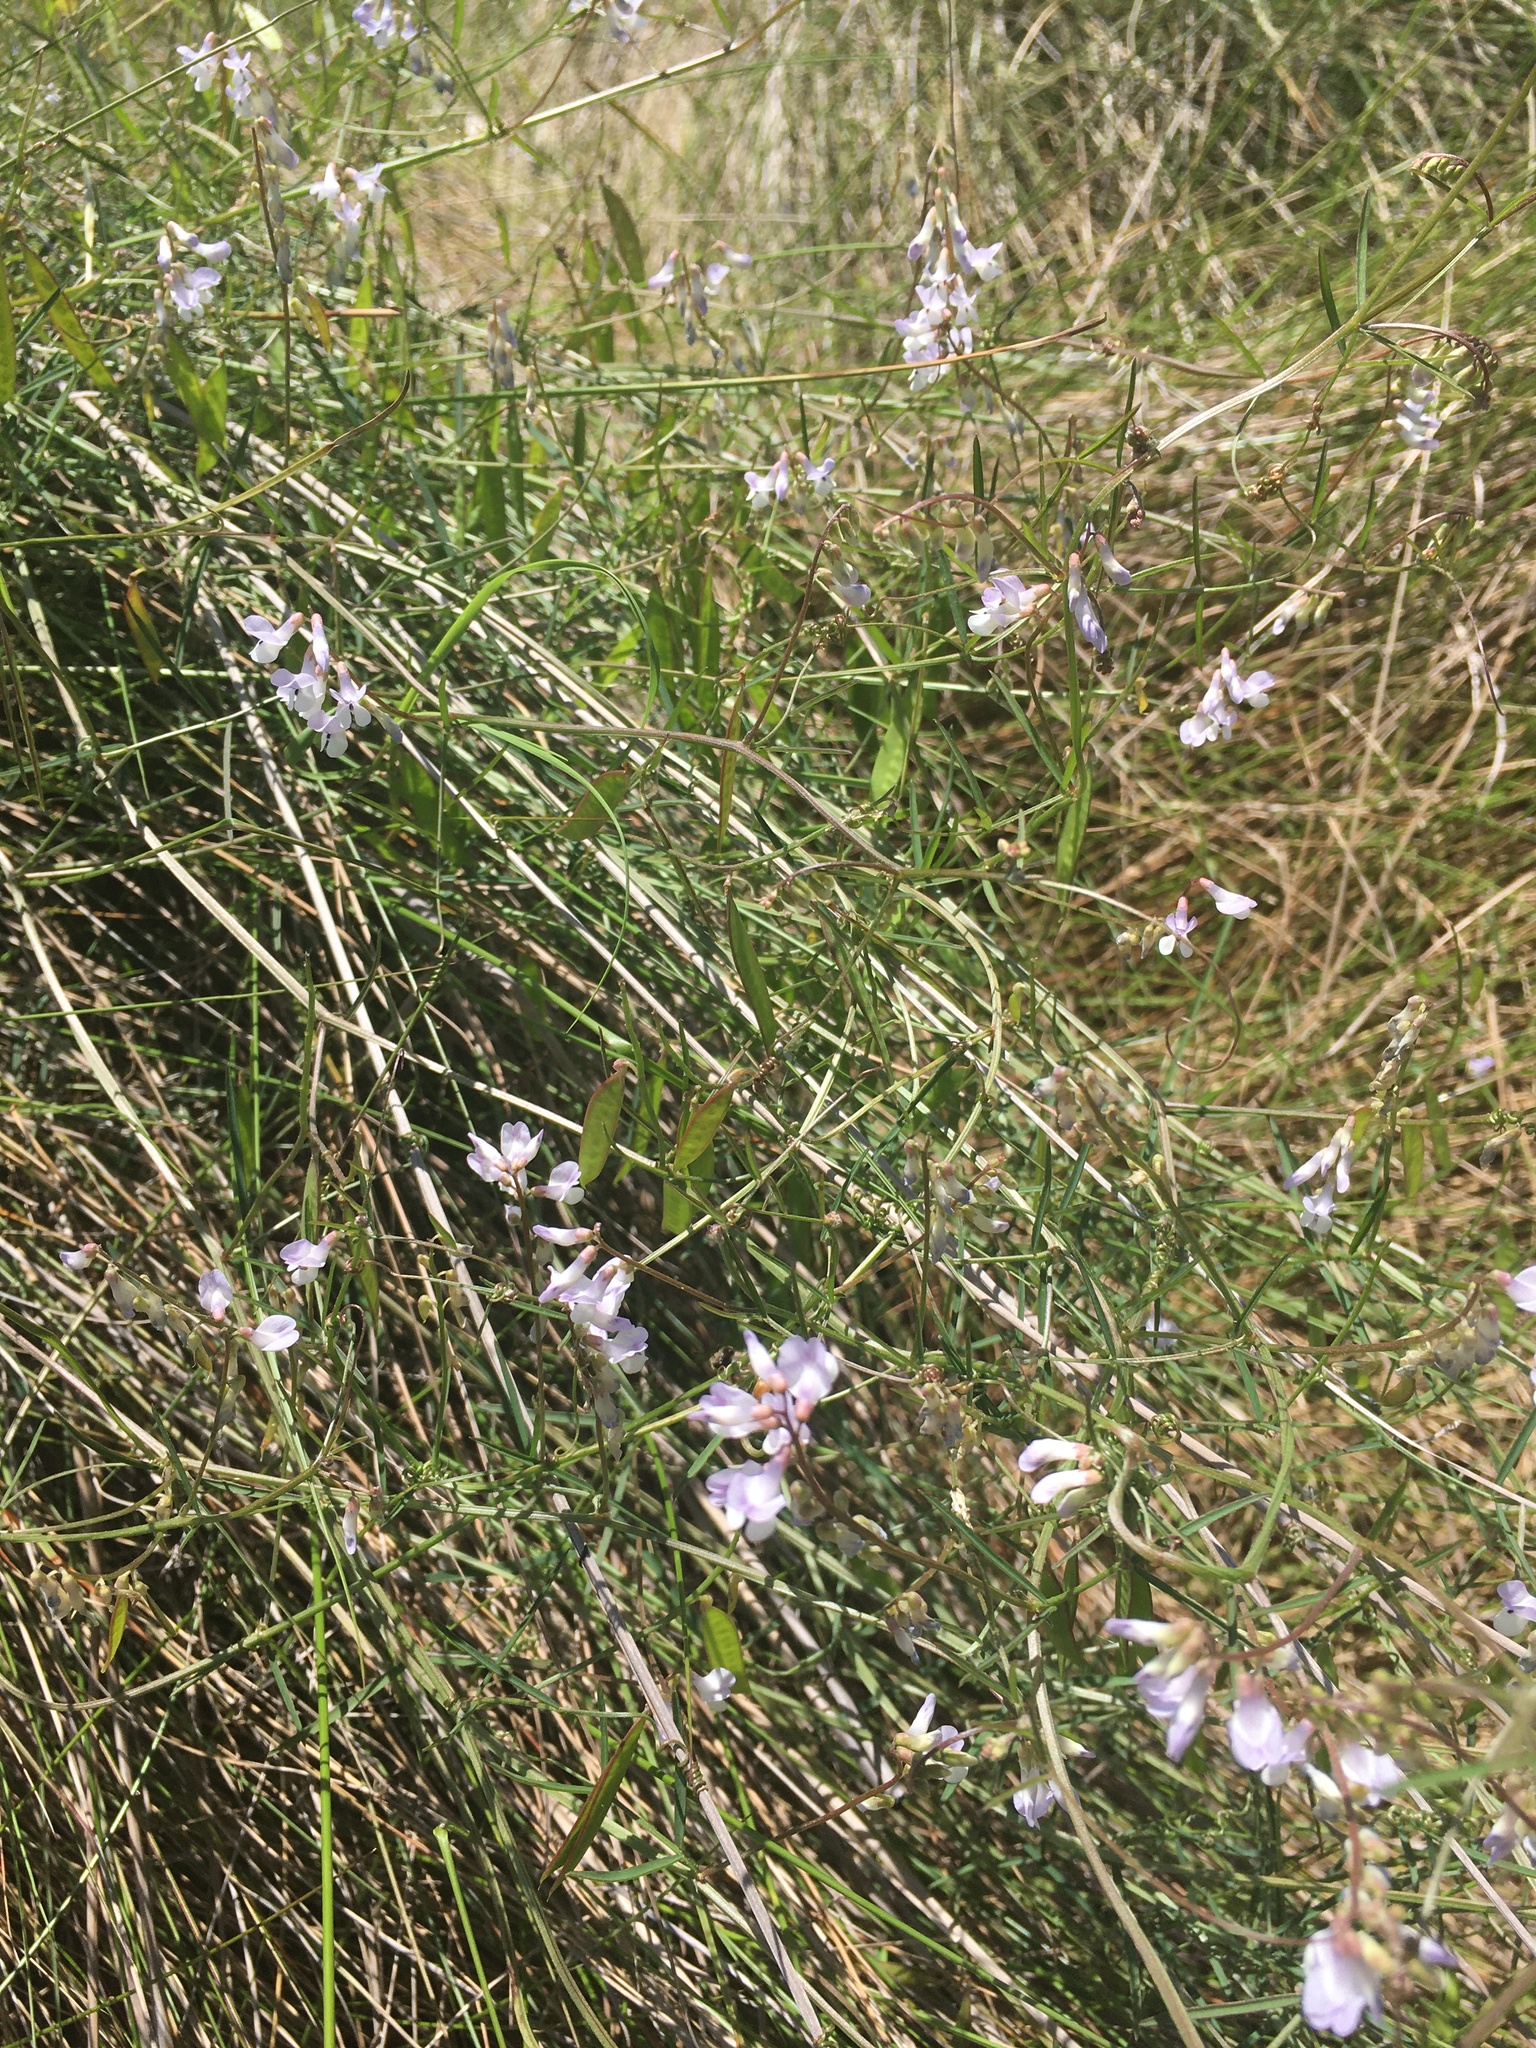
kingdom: Plantae
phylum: Tracheophyta
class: Magnoliopsida
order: Fabales
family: Fabaceae
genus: Vicia
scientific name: Vicia acutifolia
